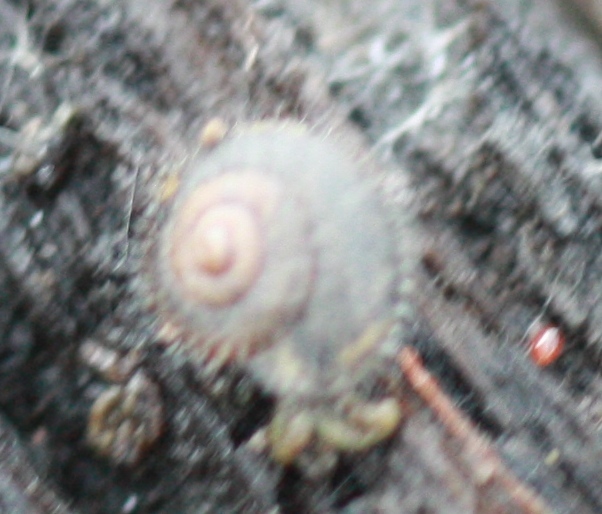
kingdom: Animalia
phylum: Mollusca
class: Gastropoda
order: Stylommatophora
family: Geomitridae
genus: Xerotricha
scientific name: Xerotricha conspurcata
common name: Snail
